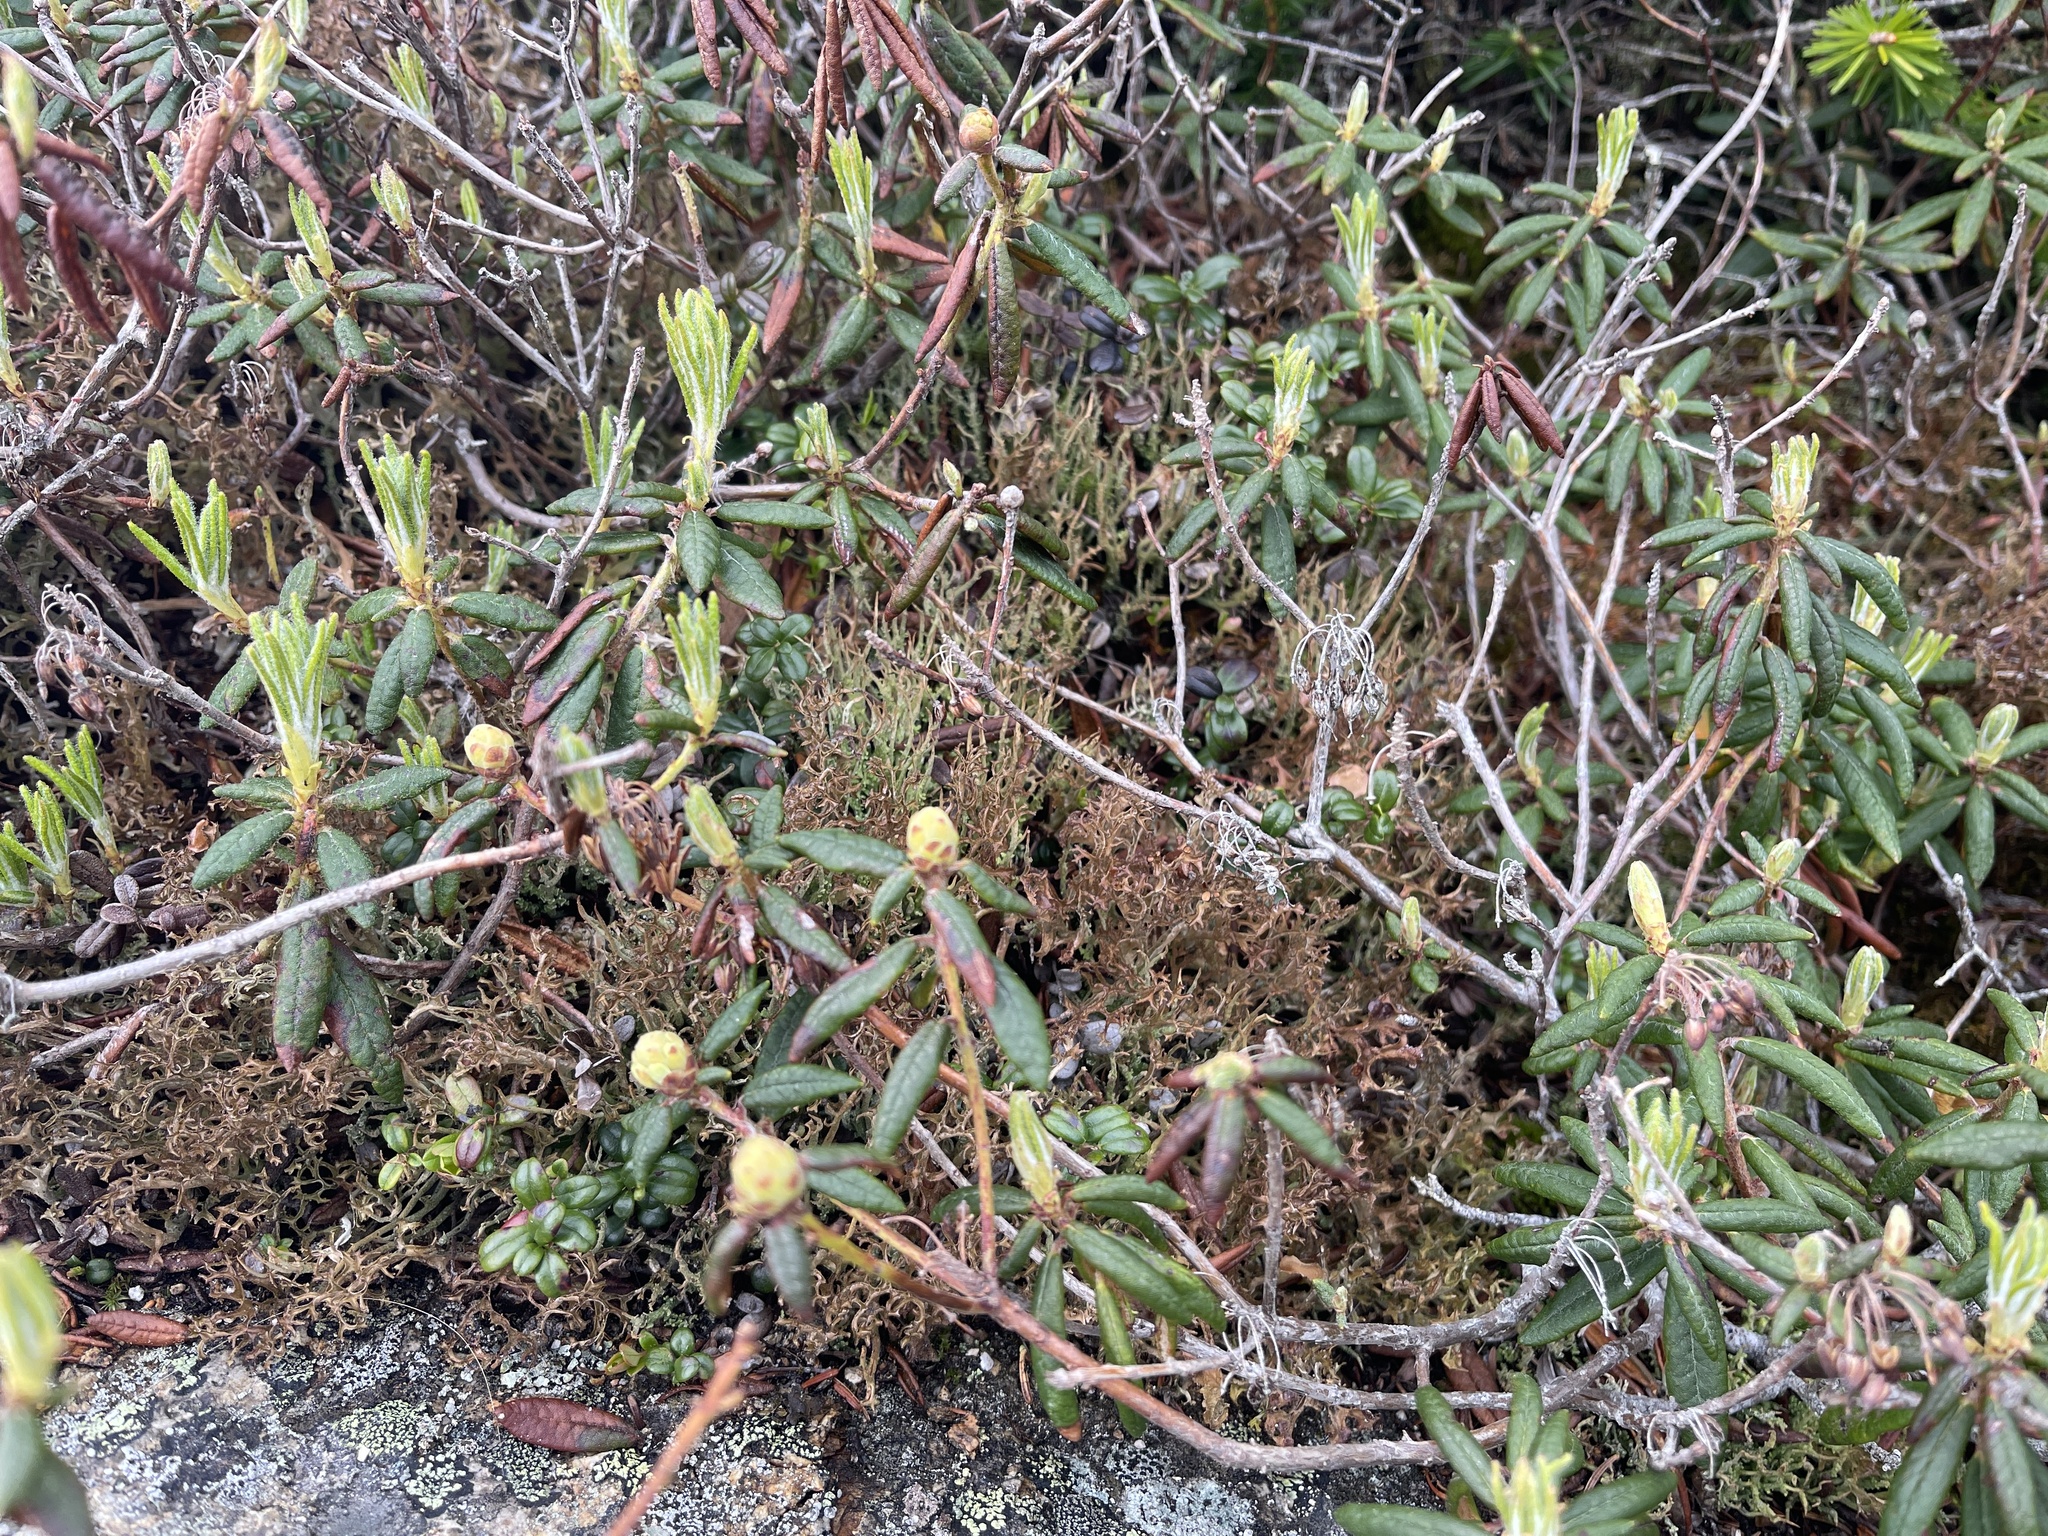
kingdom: Plantae
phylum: Tracheophyta
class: Magnoliopsida
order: Ericales
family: Ericaceae
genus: Rhododendron
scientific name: Rhododendron groenlandicum
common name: Bog labrador tea
